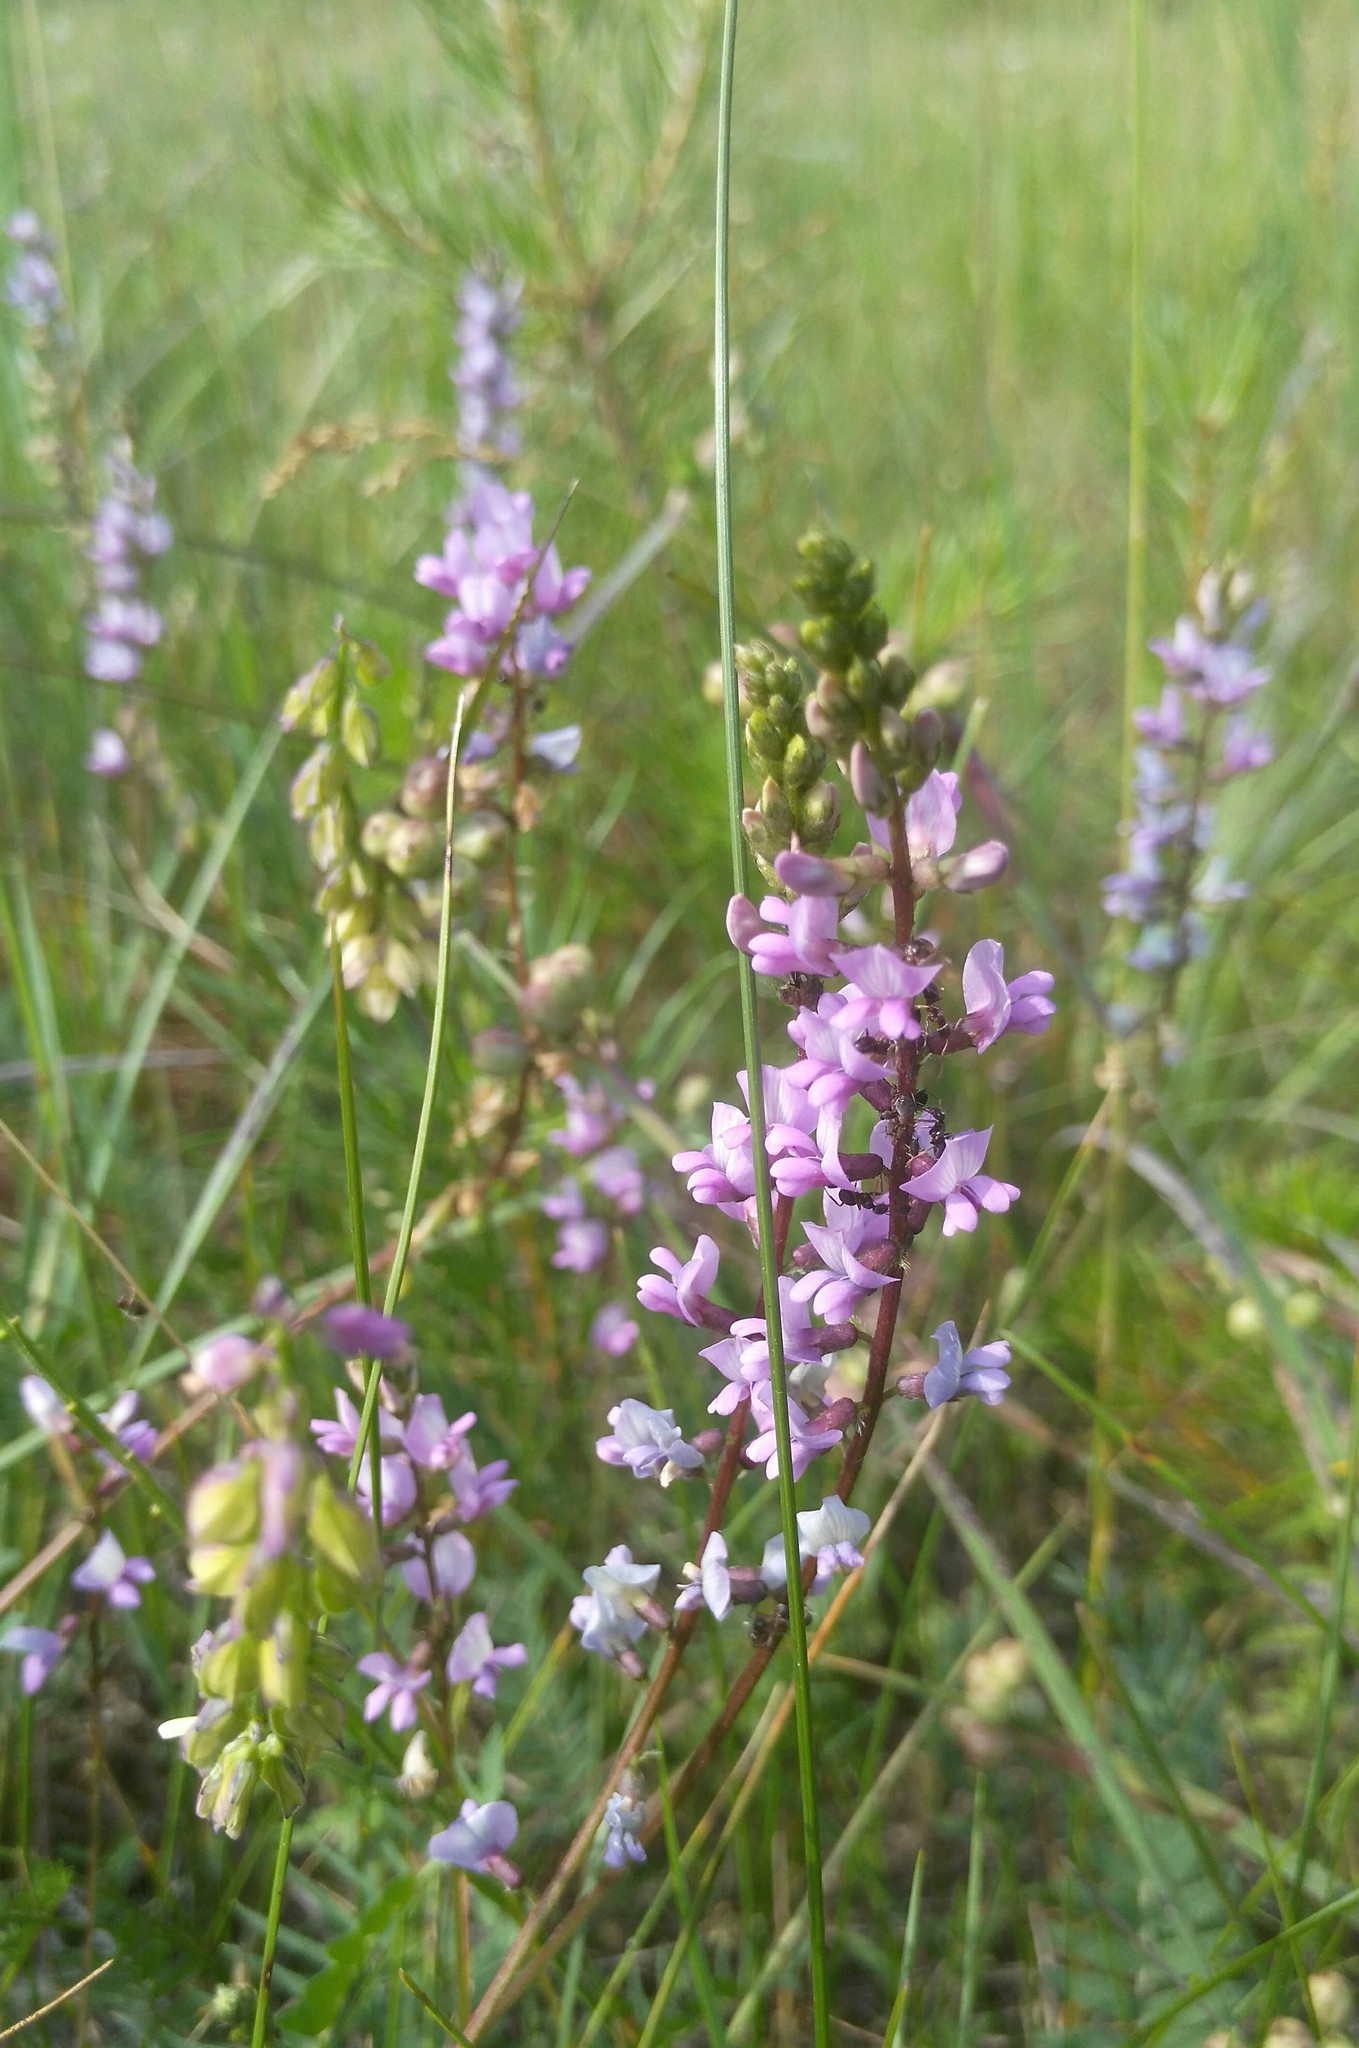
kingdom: Plantae
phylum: Tracheophyta
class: Magnoliopsida
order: Fabales
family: Fabaceae
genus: Oxytropis
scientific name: Oxytropis glabra
